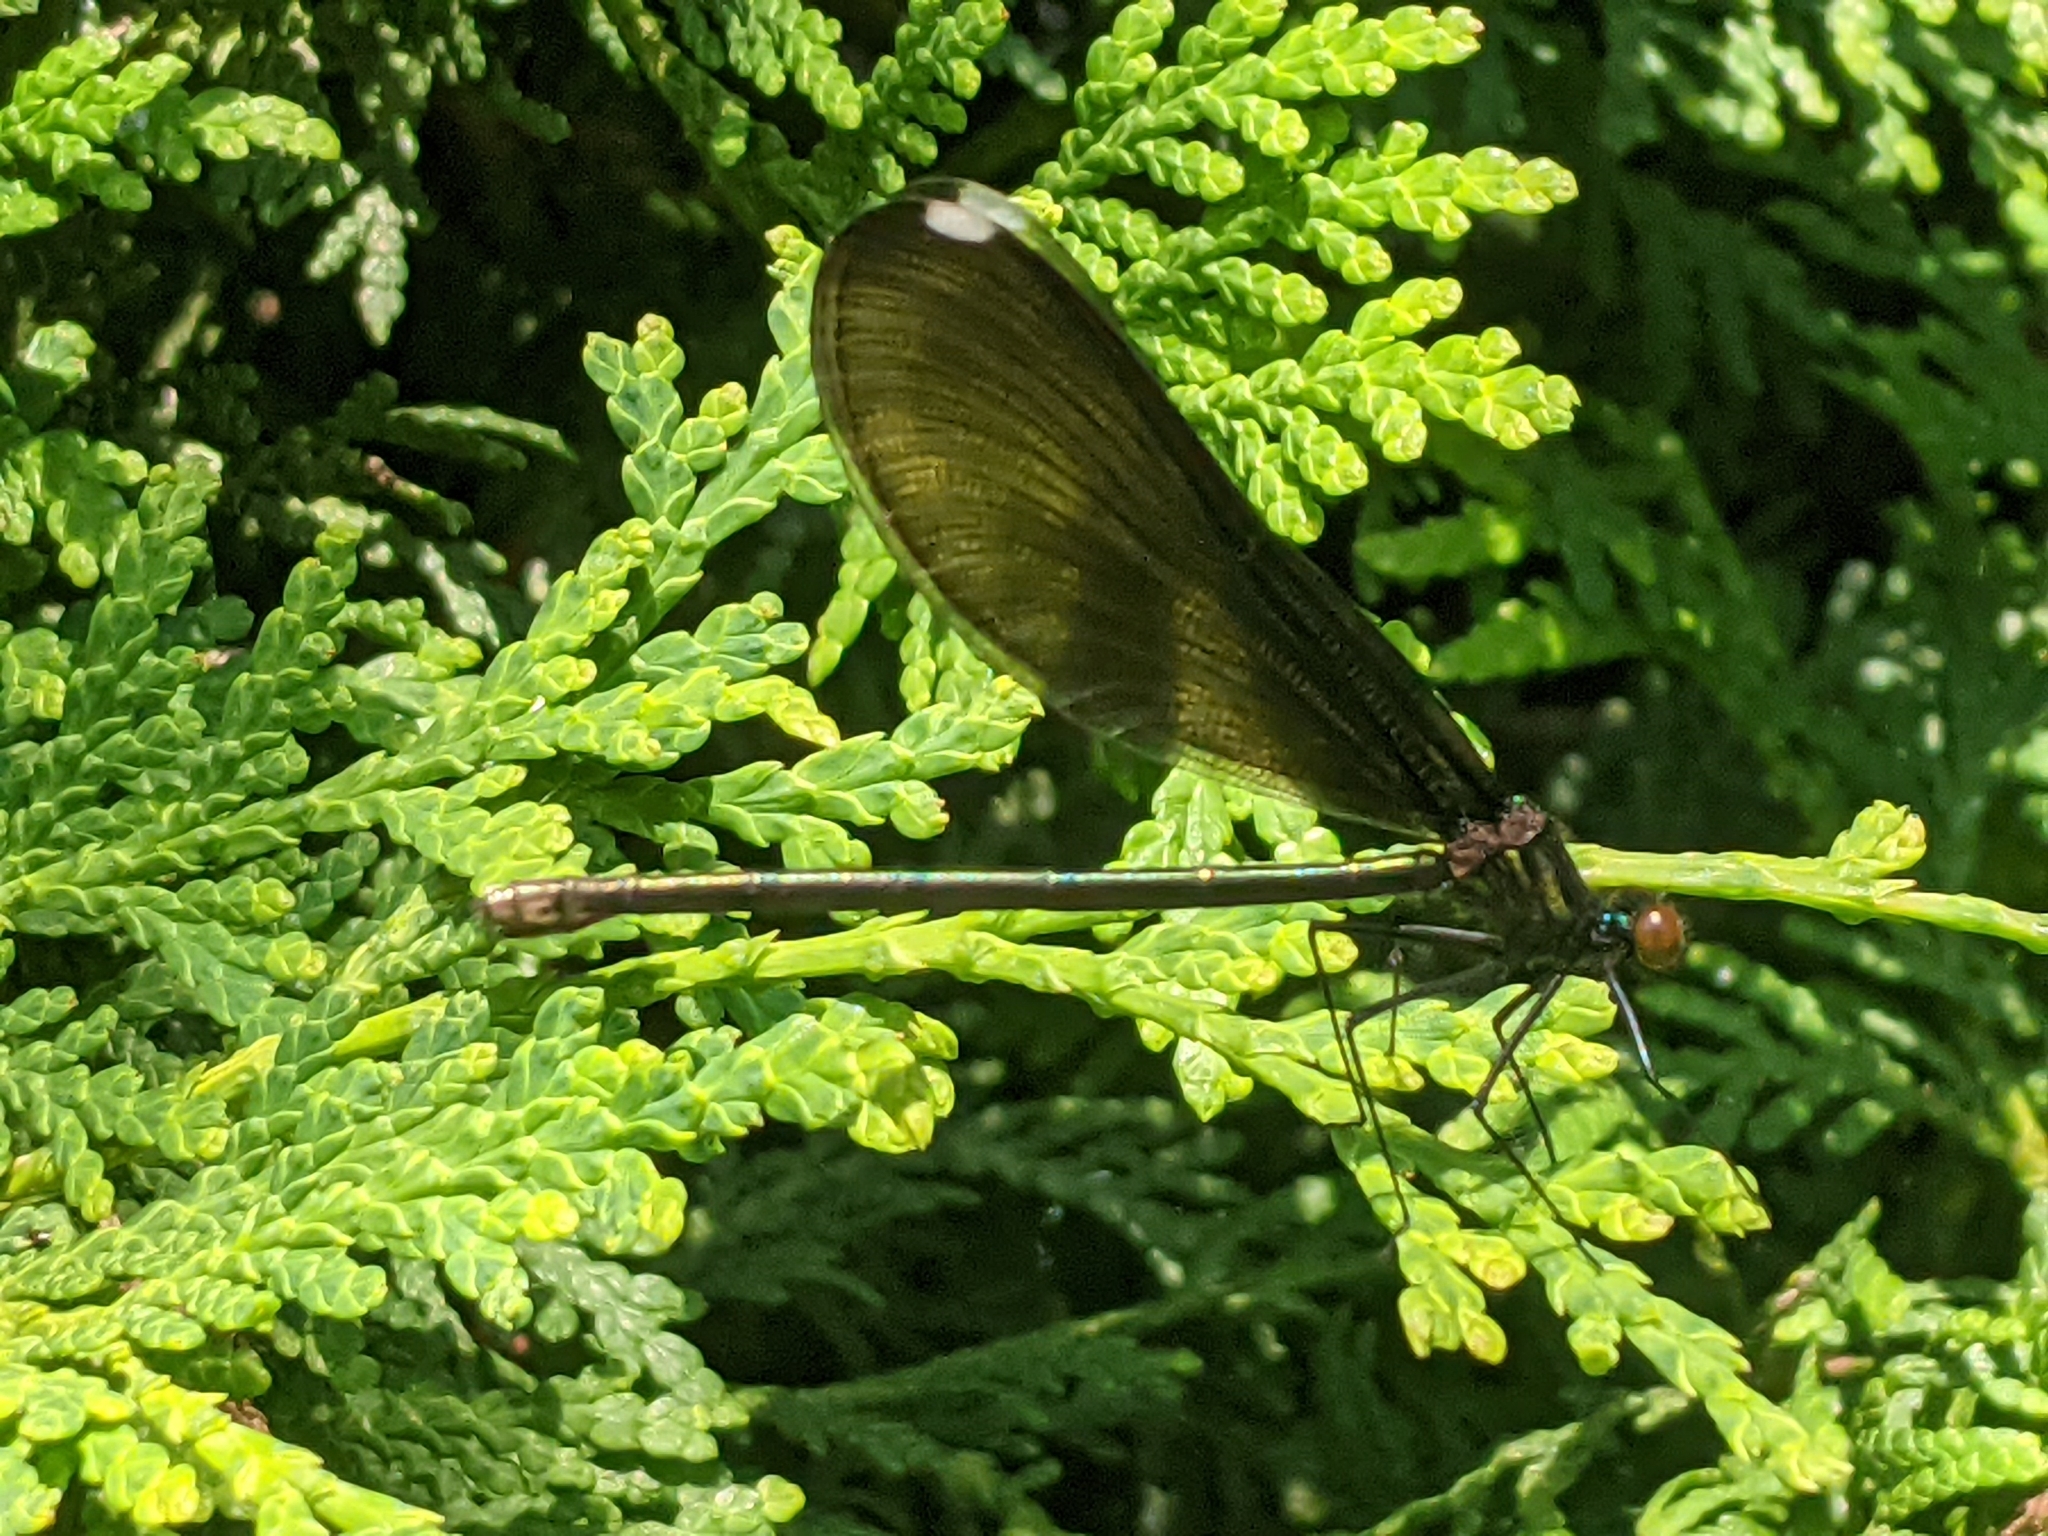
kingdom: Animalia
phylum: Arthropoda
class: Insecta
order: Odonata
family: Calopterygidae
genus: Calopteryx
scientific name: Calopteryx maculata
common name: Ebony jewelwing
